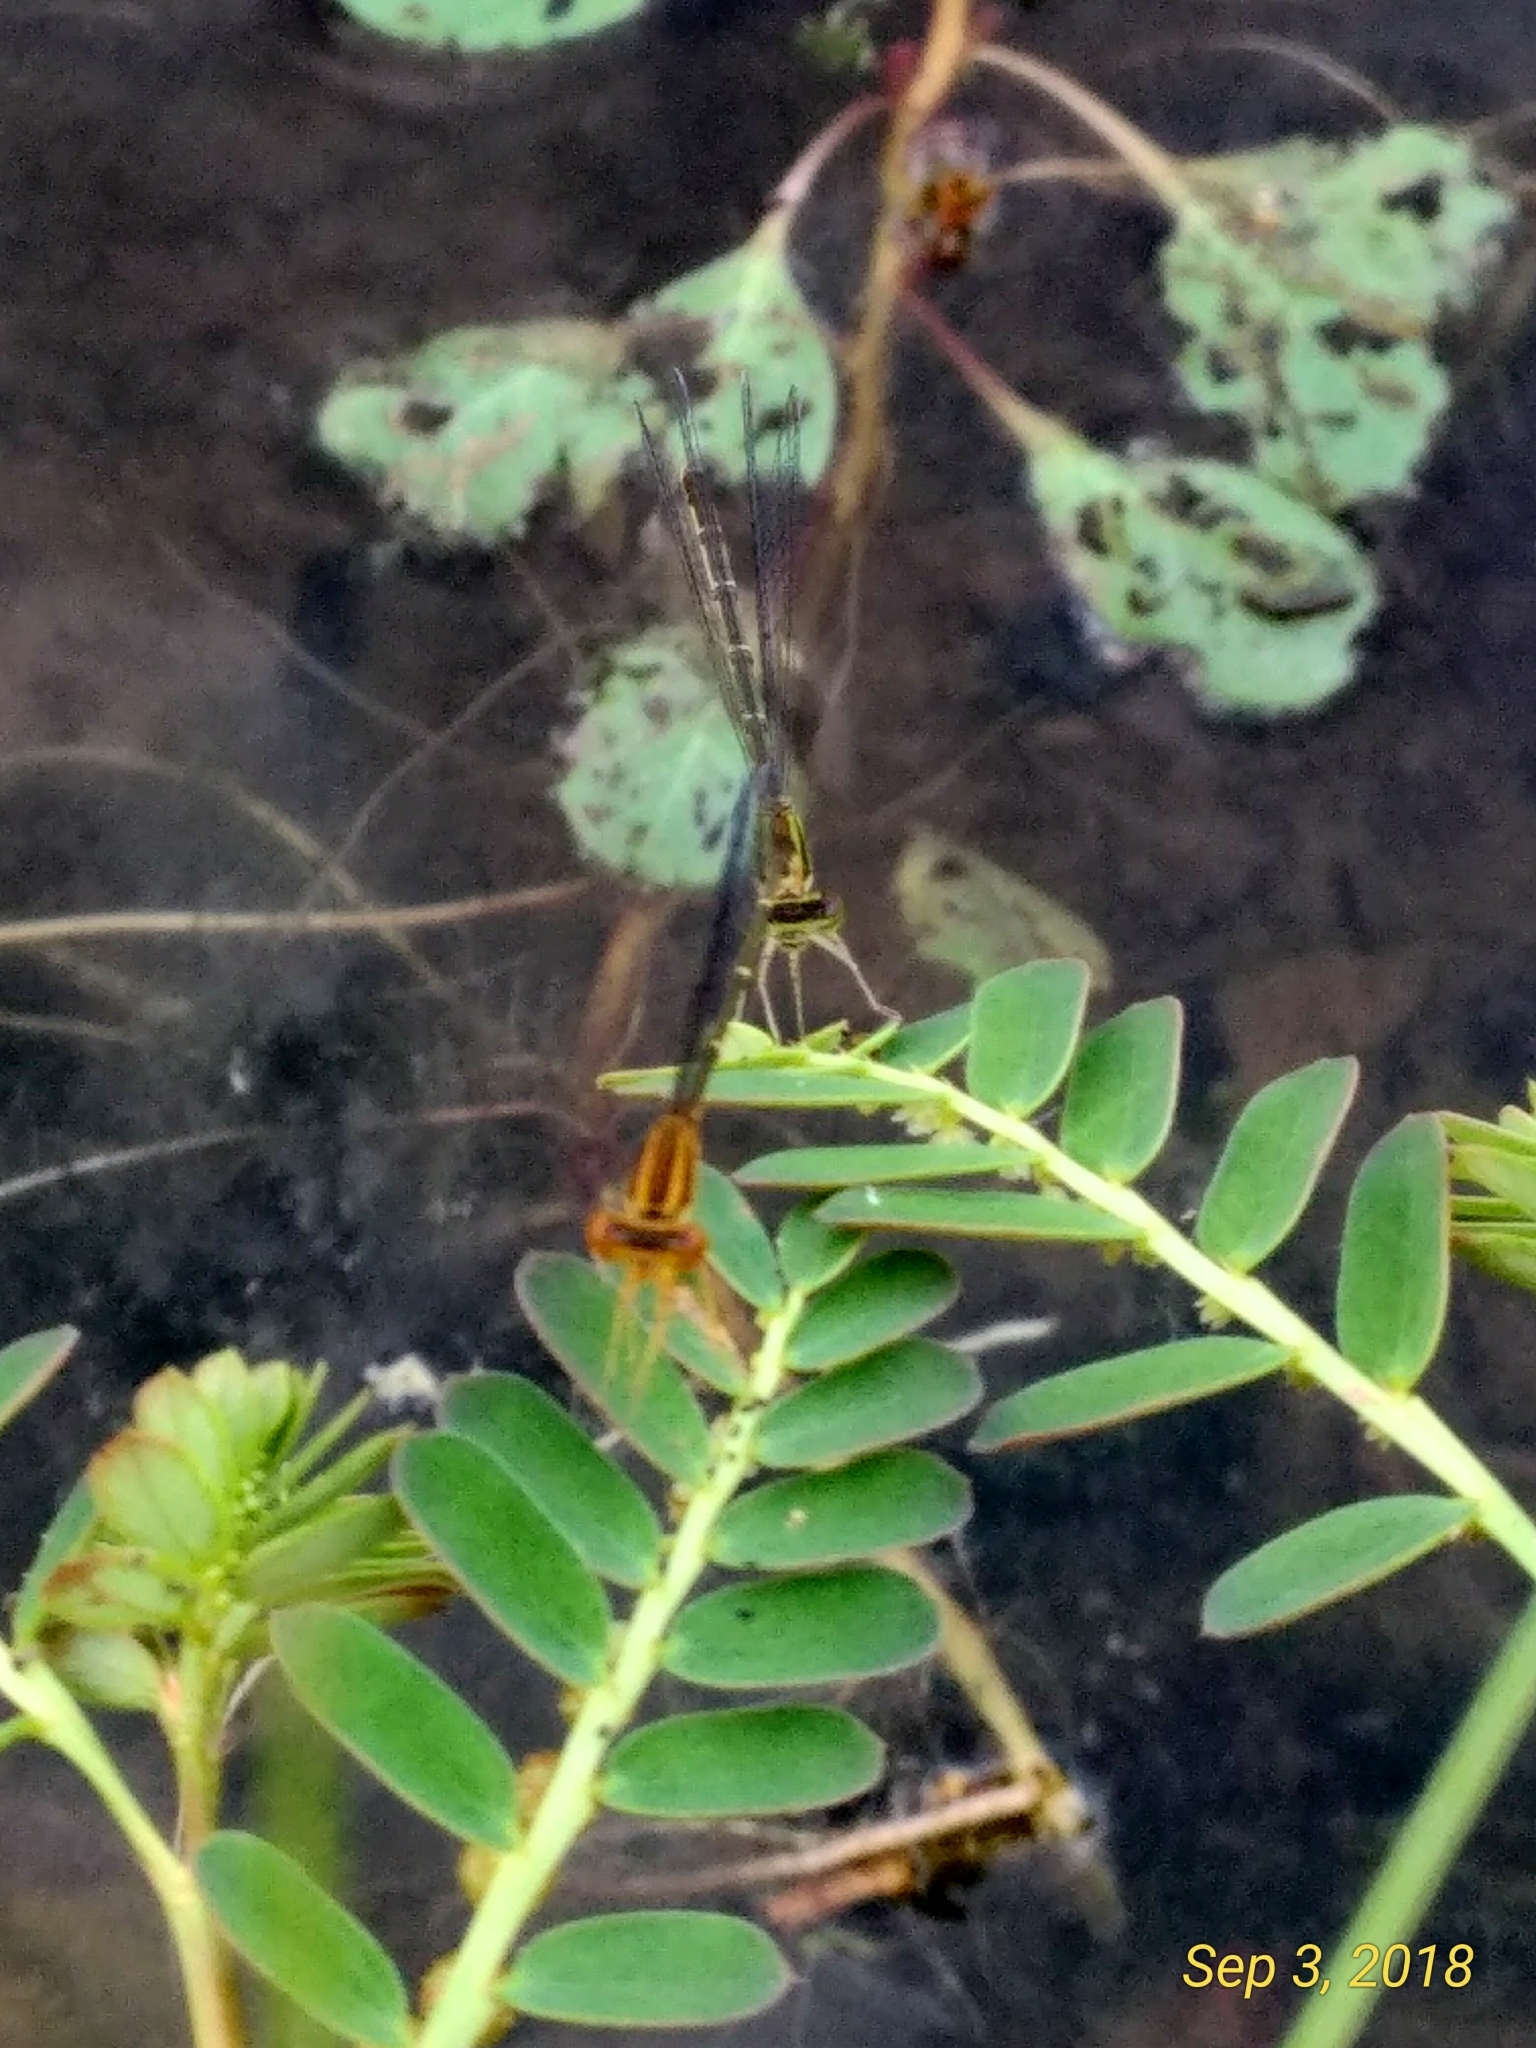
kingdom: Animalia
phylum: Arthropoda
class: Insecta
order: Odonata
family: Coenagrionidae
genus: Enallagma
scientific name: Enallagma signatum
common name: Orange bluet
